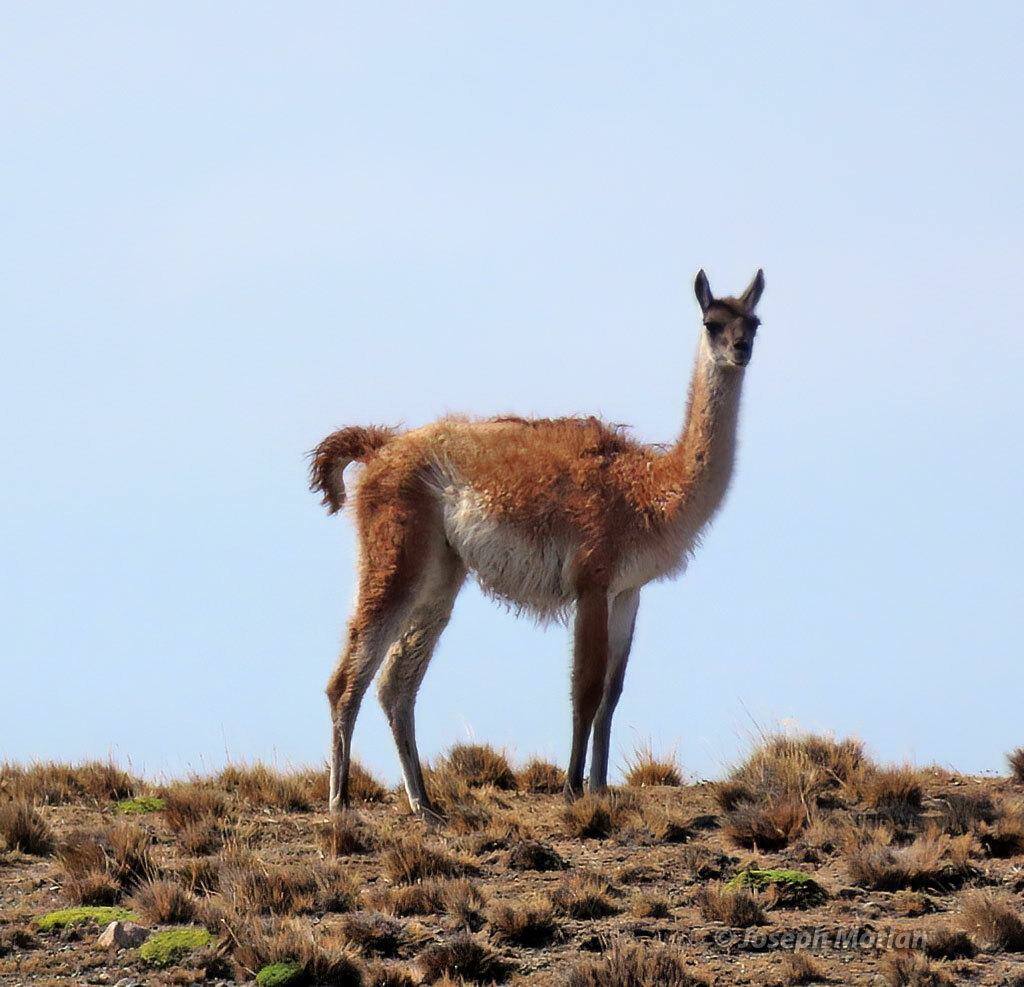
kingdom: Animalia
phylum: Chordata
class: Mammalia
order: Artiodactyla
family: Camelidae
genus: Lama
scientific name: Lama glama
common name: Llama
